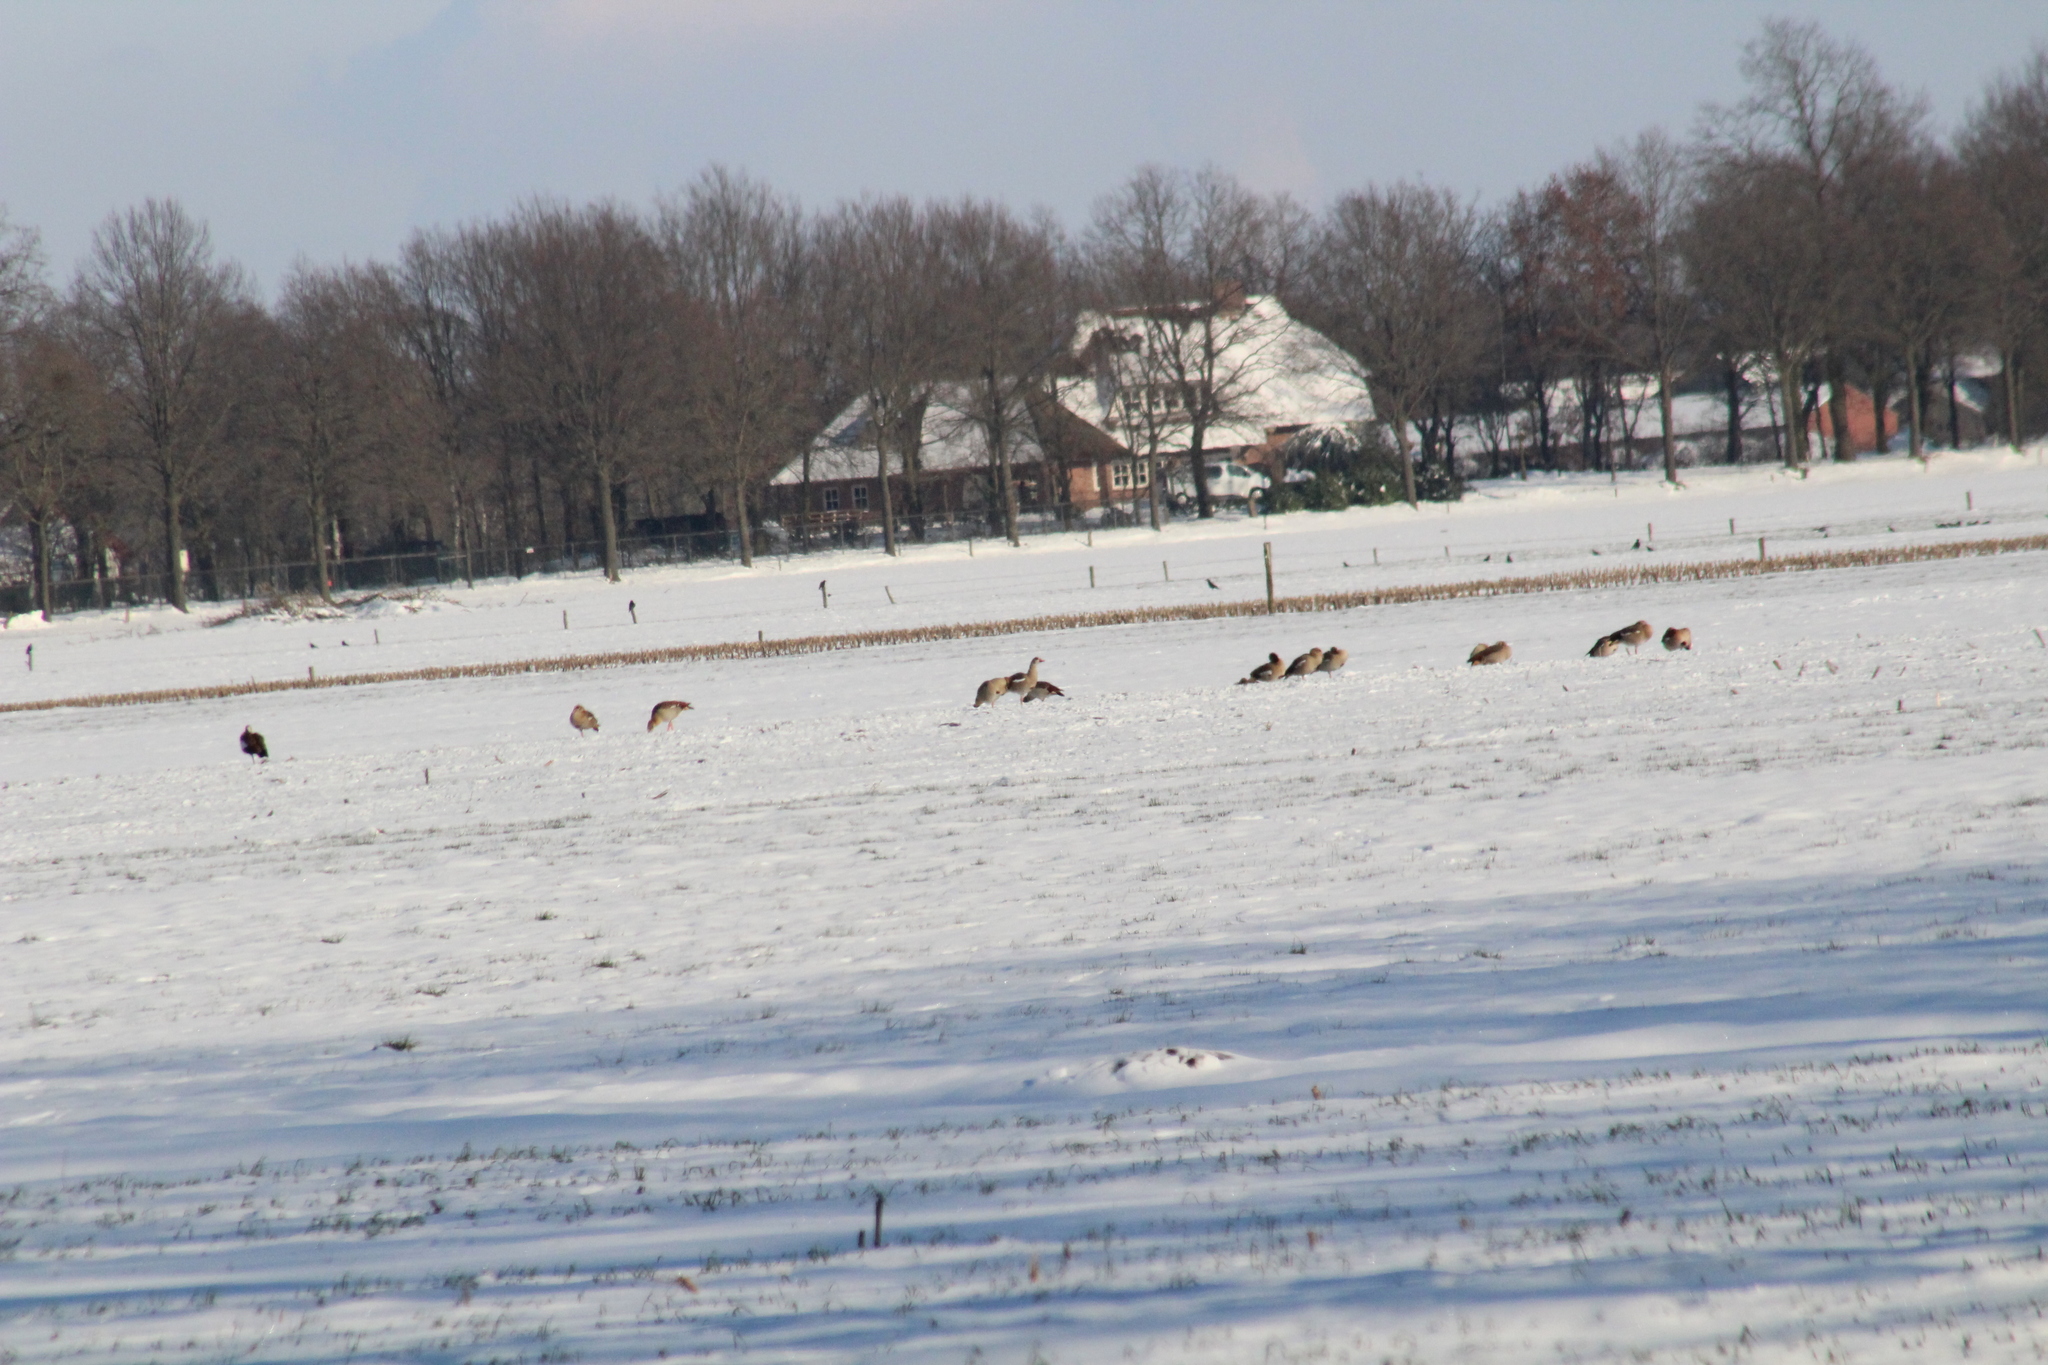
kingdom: Animalia
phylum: Chordata
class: Aves
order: Anseriformes
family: Anatidae
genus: Alopochen
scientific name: Alopochen aegyptiaca
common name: Egyptian goose
